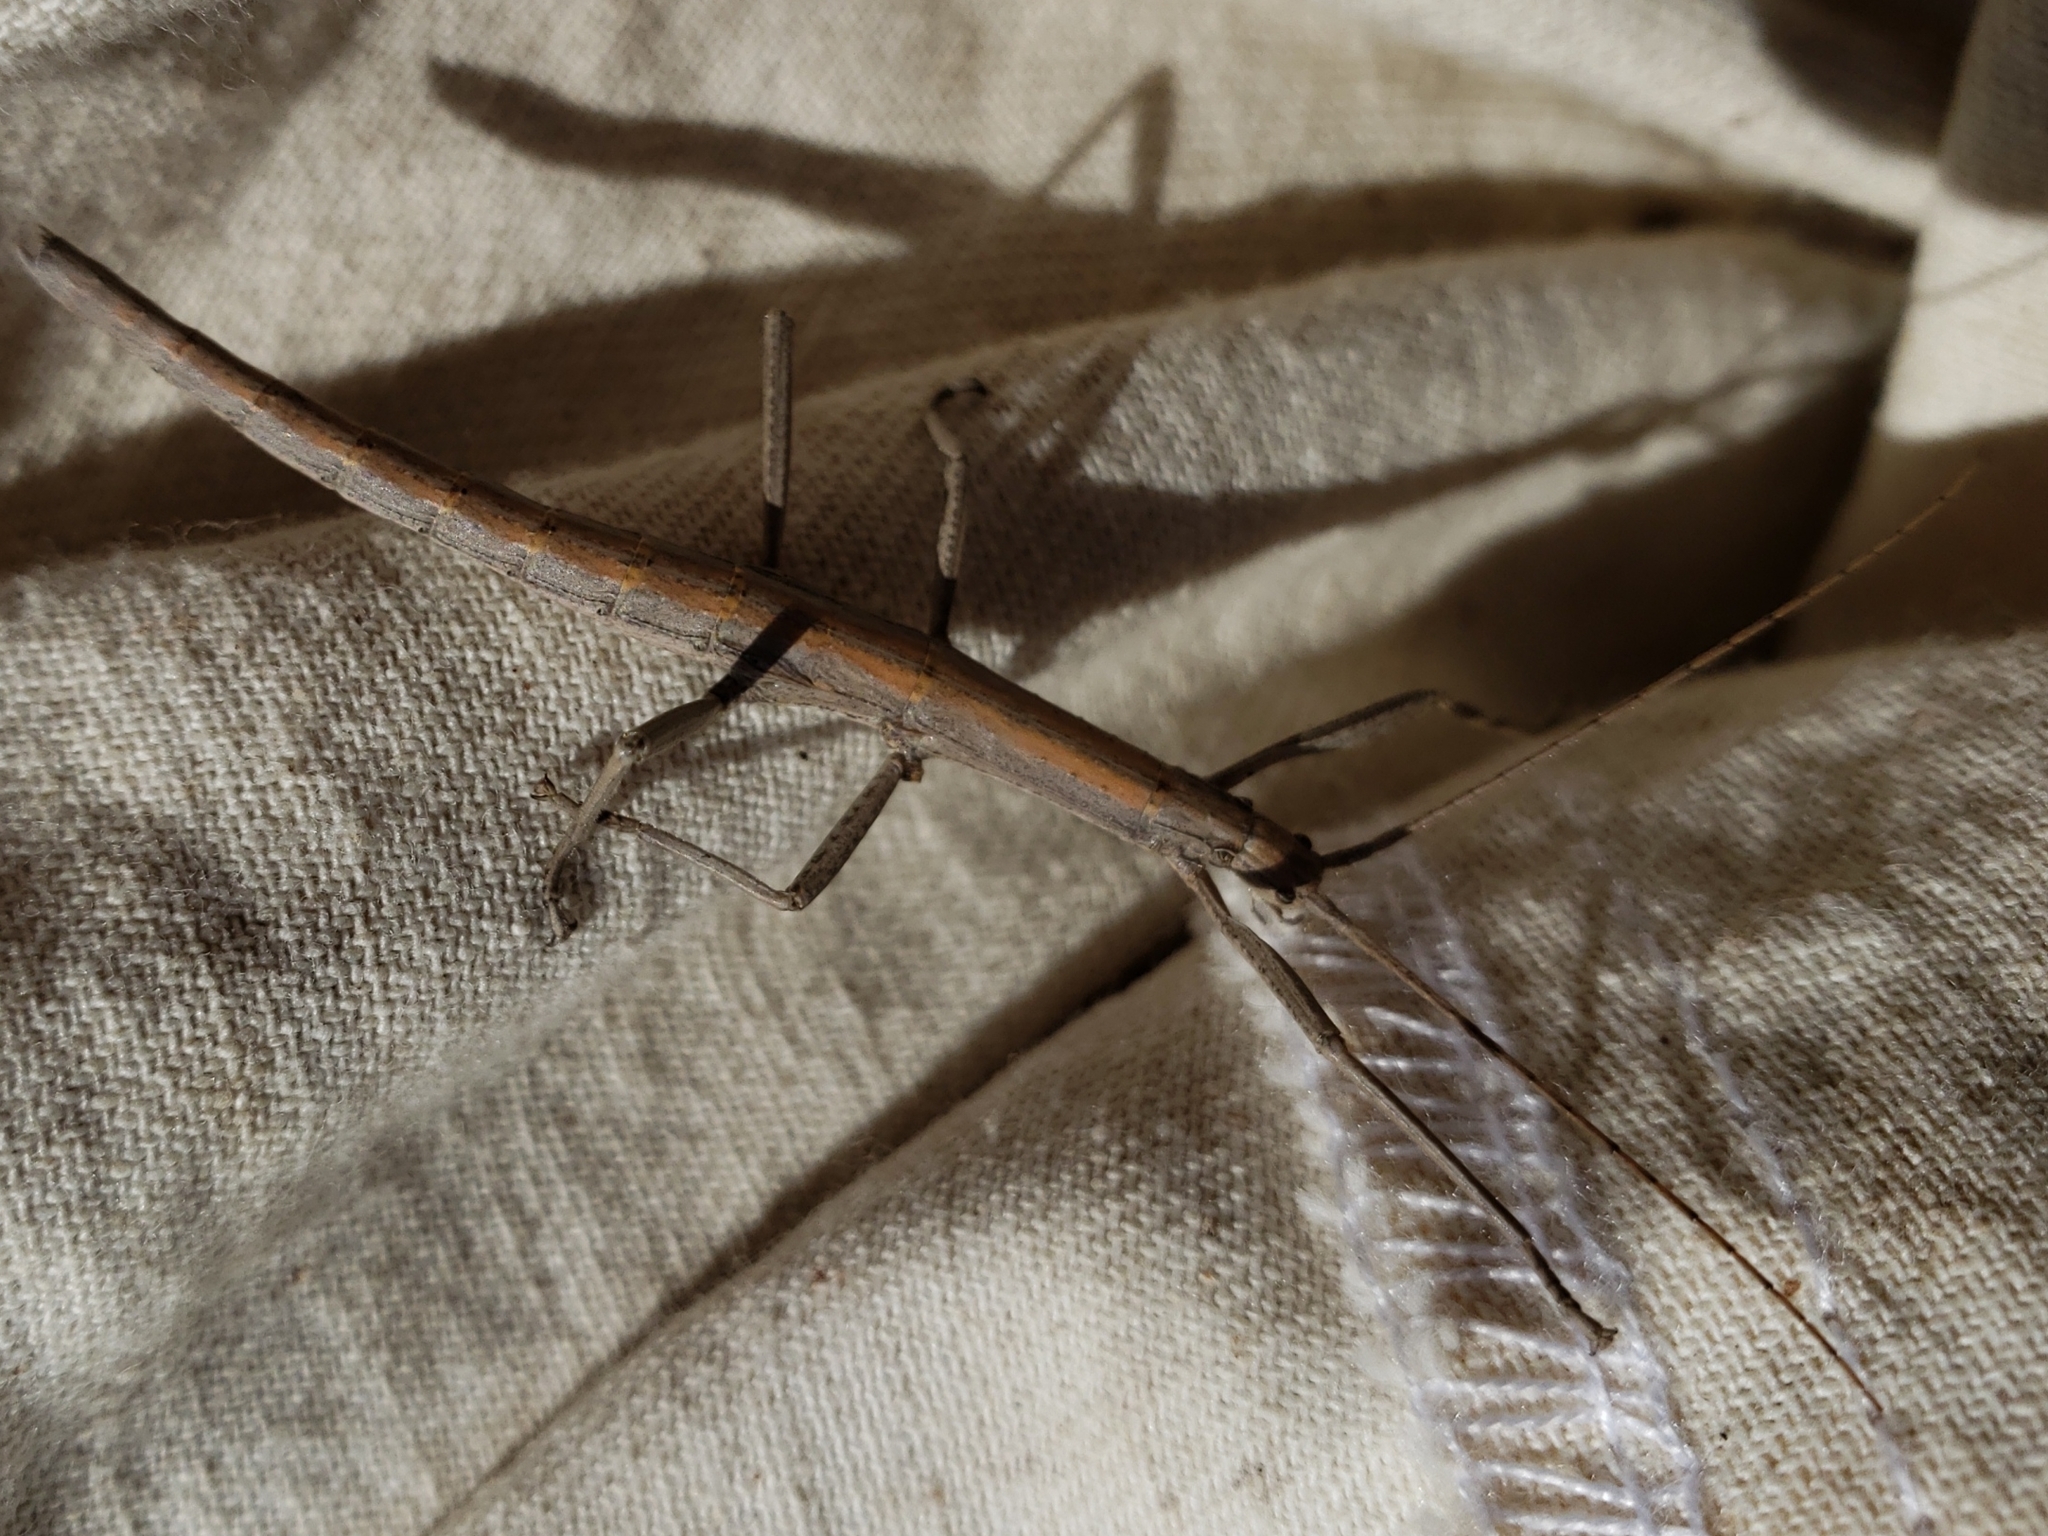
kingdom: Animalia
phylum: Arthropoda
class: Insecta
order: Phasmida
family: Pseudophasmatidae
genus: Anisomorpha
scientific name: Anisomorpha buprestoides
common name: Florida stick insect
